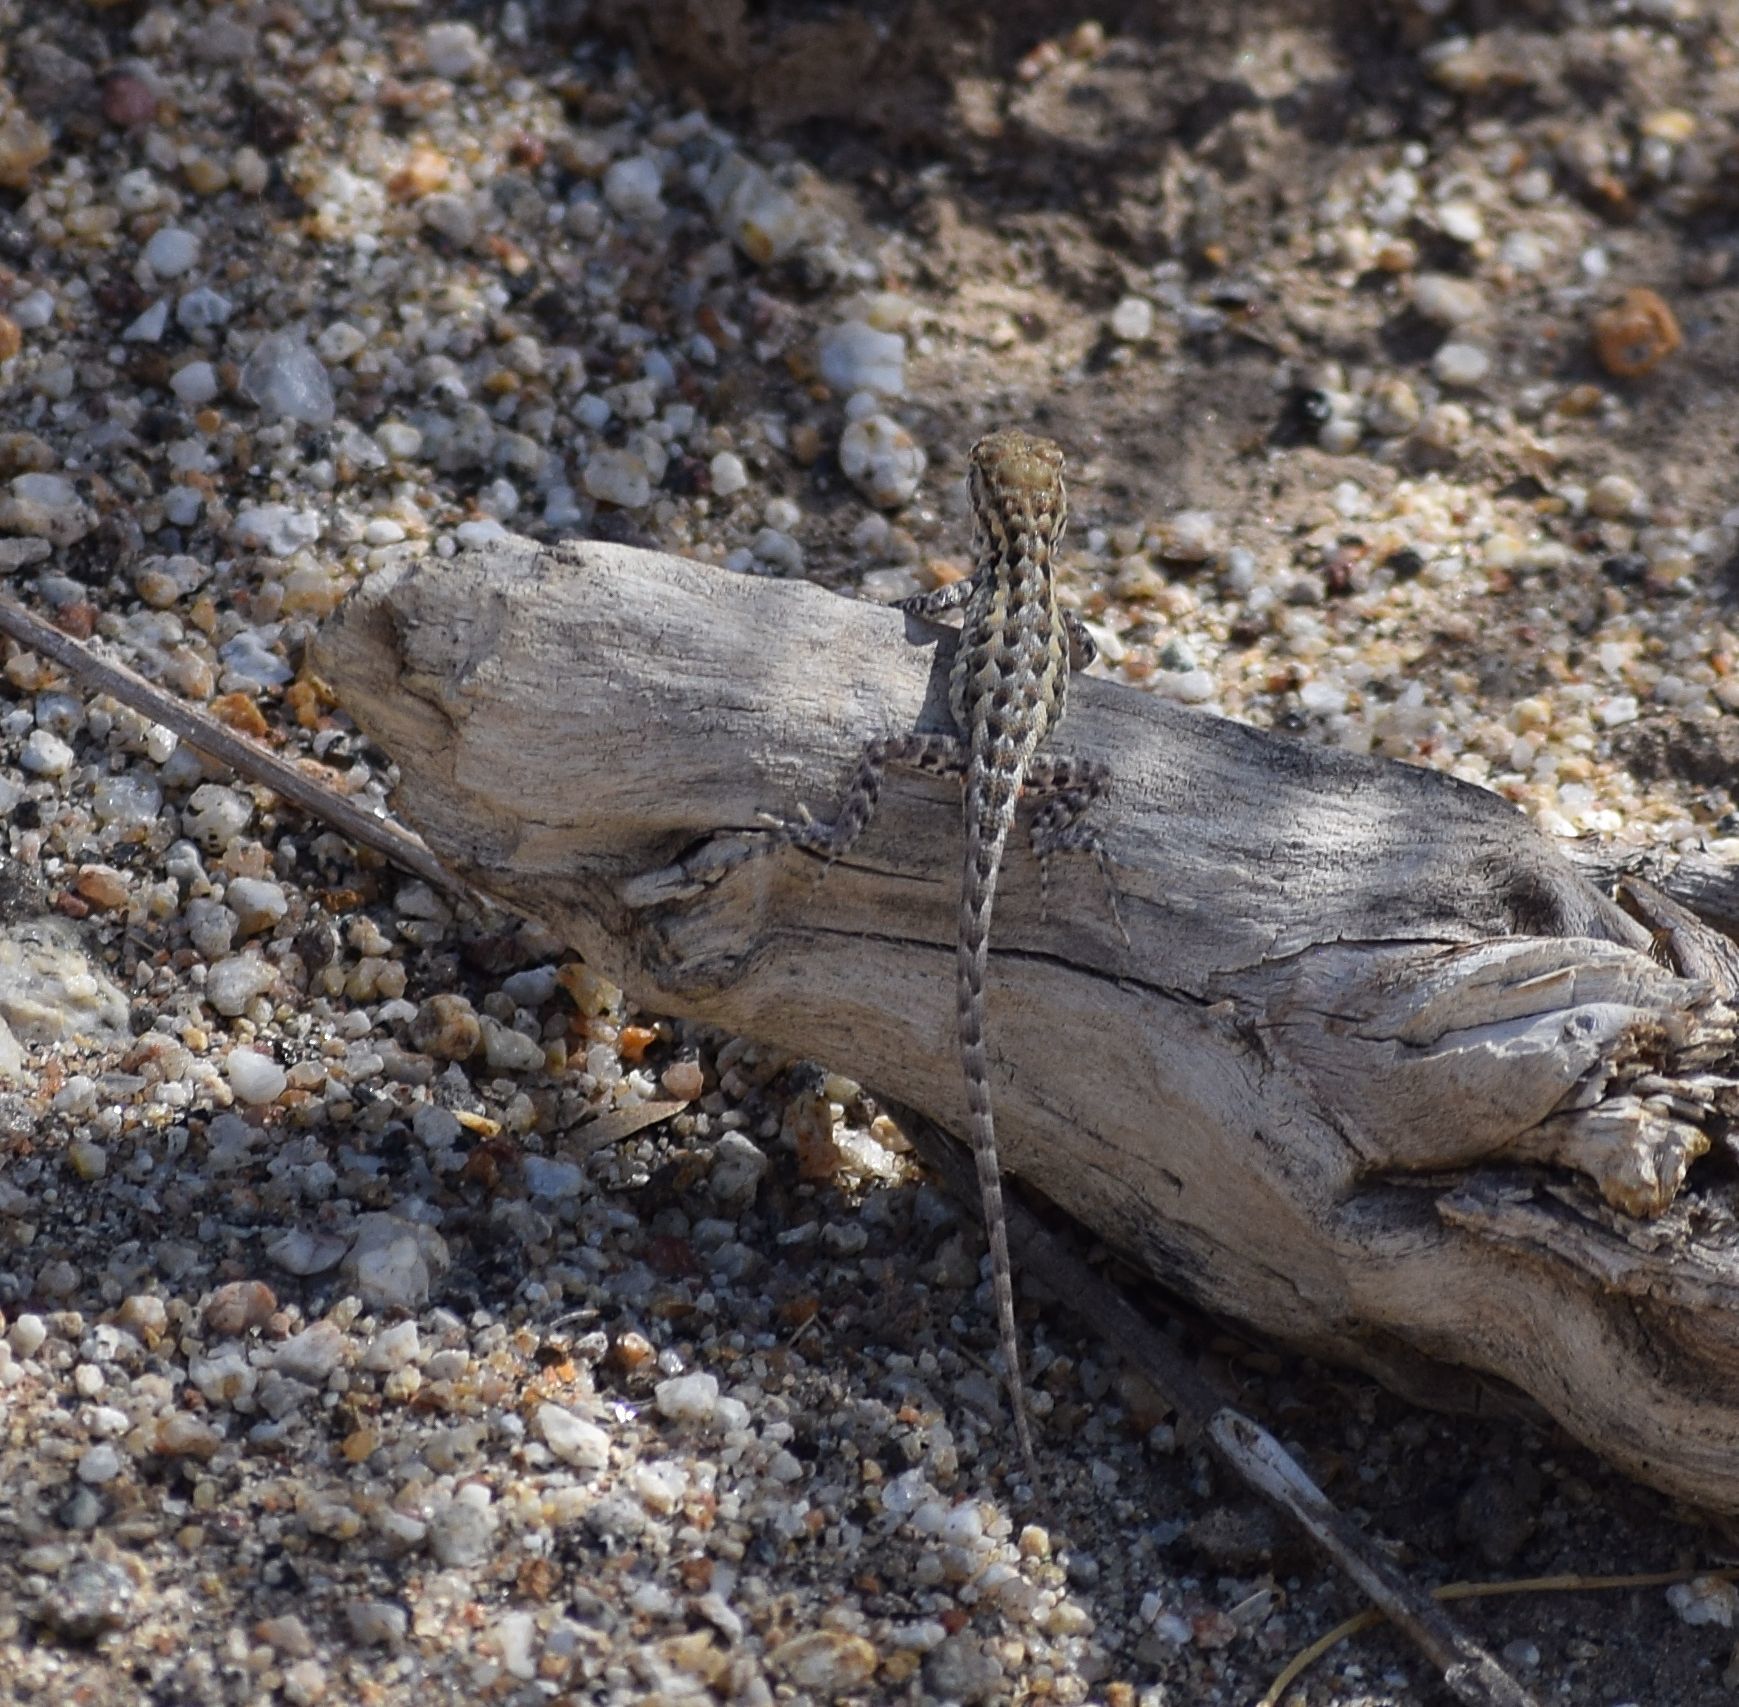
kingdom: Animalia
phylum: Chordata
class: Squamata
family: Phrynosomatidae
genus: Uta
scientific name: Uta stansburiana
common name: Side-blotched lizard
